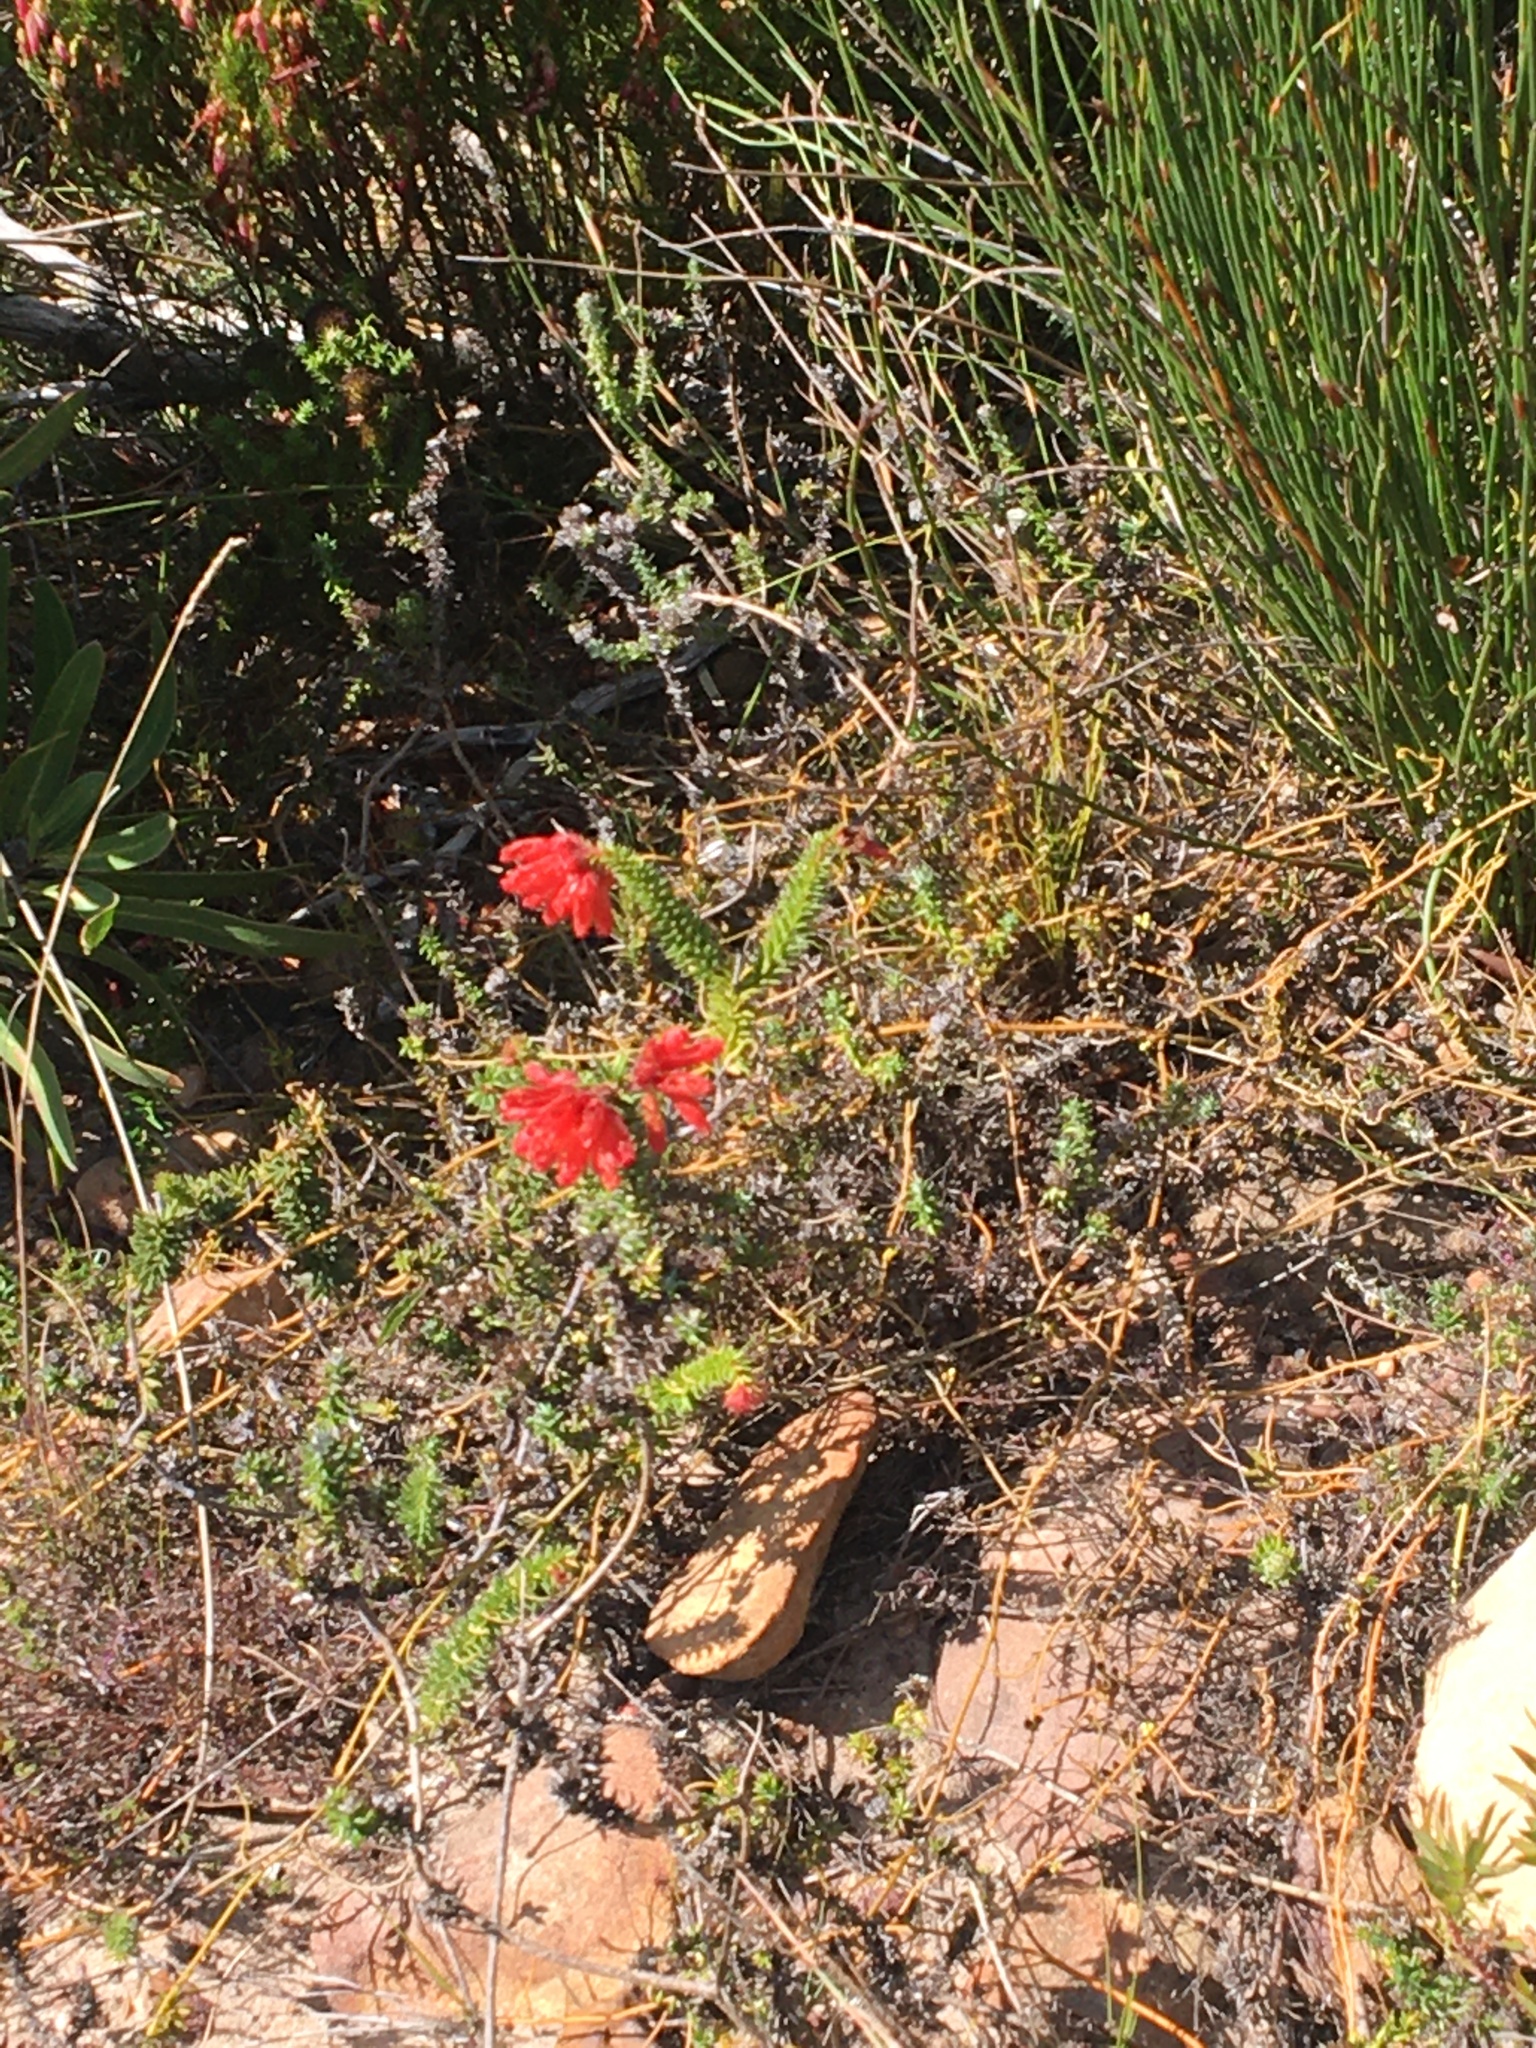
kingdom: Plantae
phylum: Tracheophyta
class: Magnoliopsida
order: Ericales
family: Ericaceae
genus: Erica
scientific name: Erica cerinthoides
